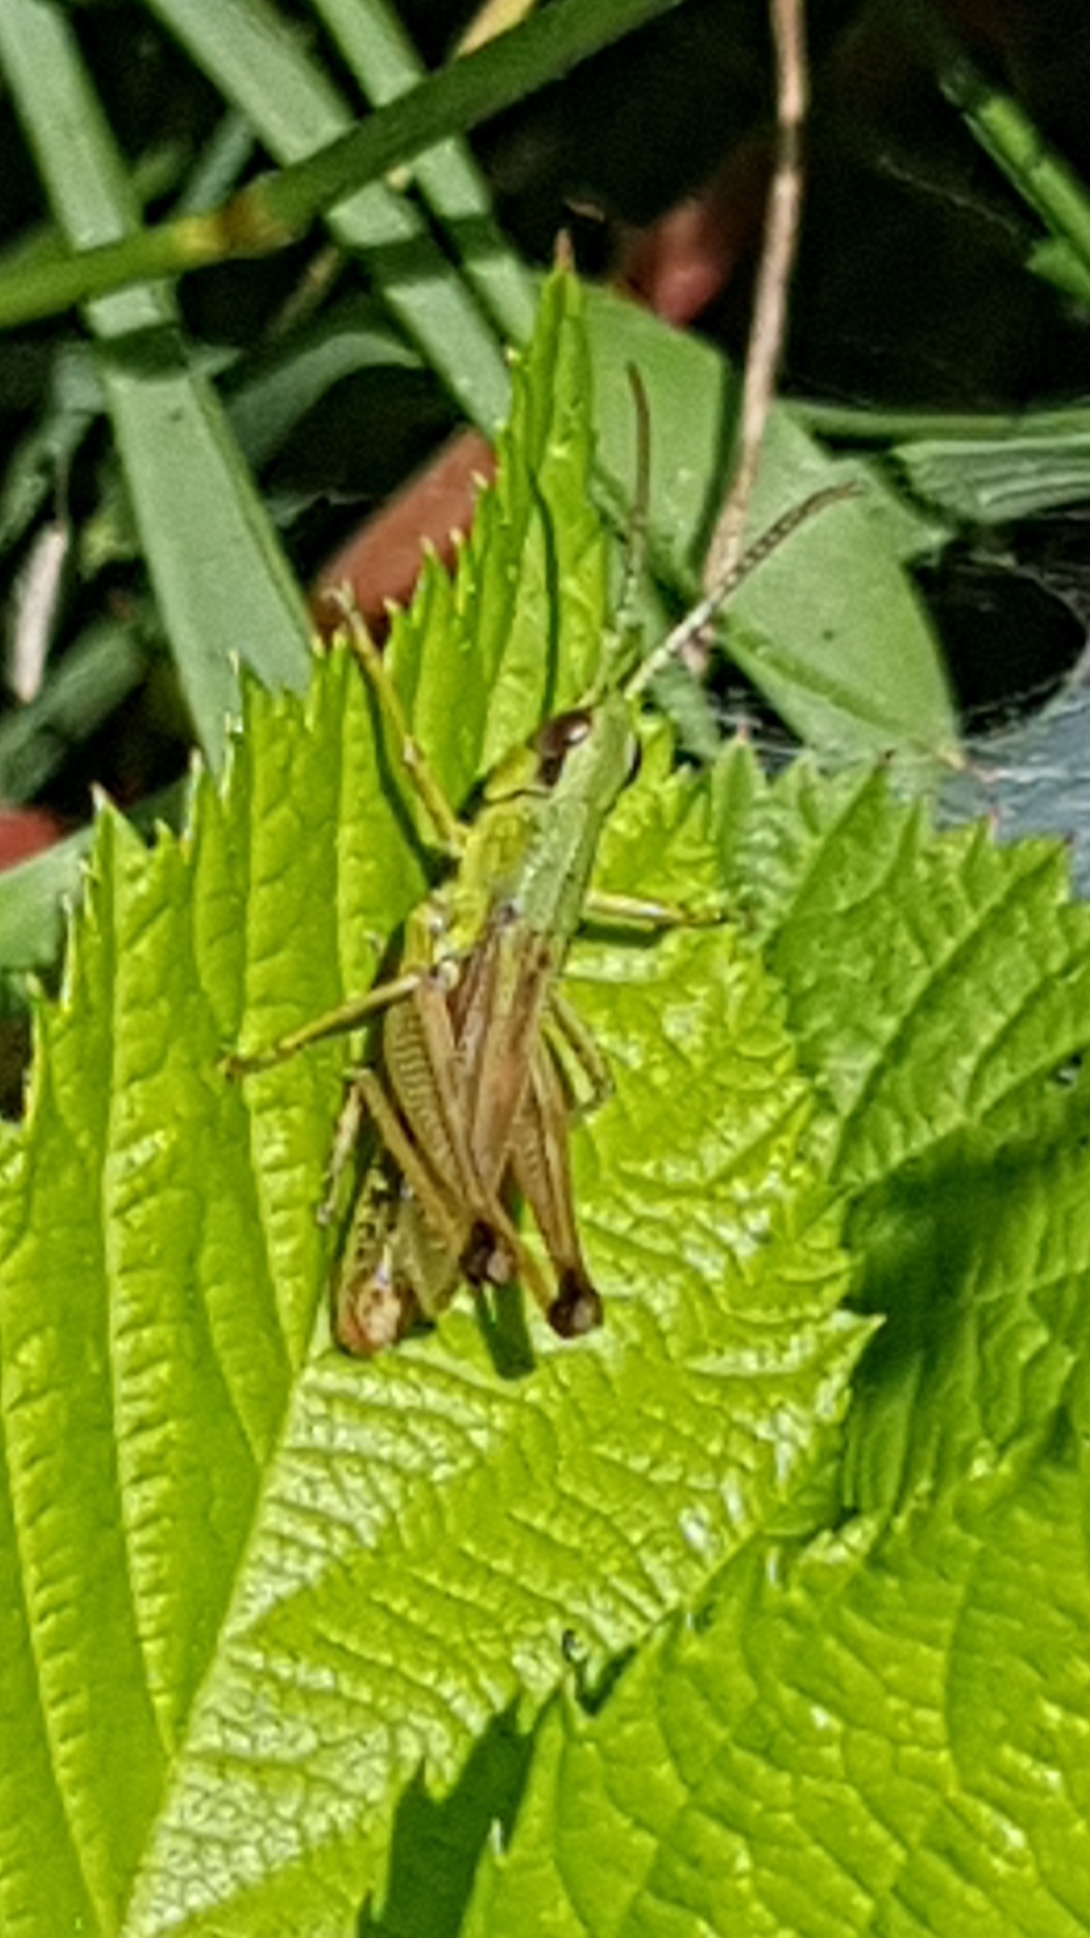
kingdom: Animalia
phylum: Arthropoda
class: Insecta
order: Orthoptera
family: Acrididae
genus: Pseudochorthippus
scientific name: Pseudochorthippus parallelus
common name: Meadow grasshopper
